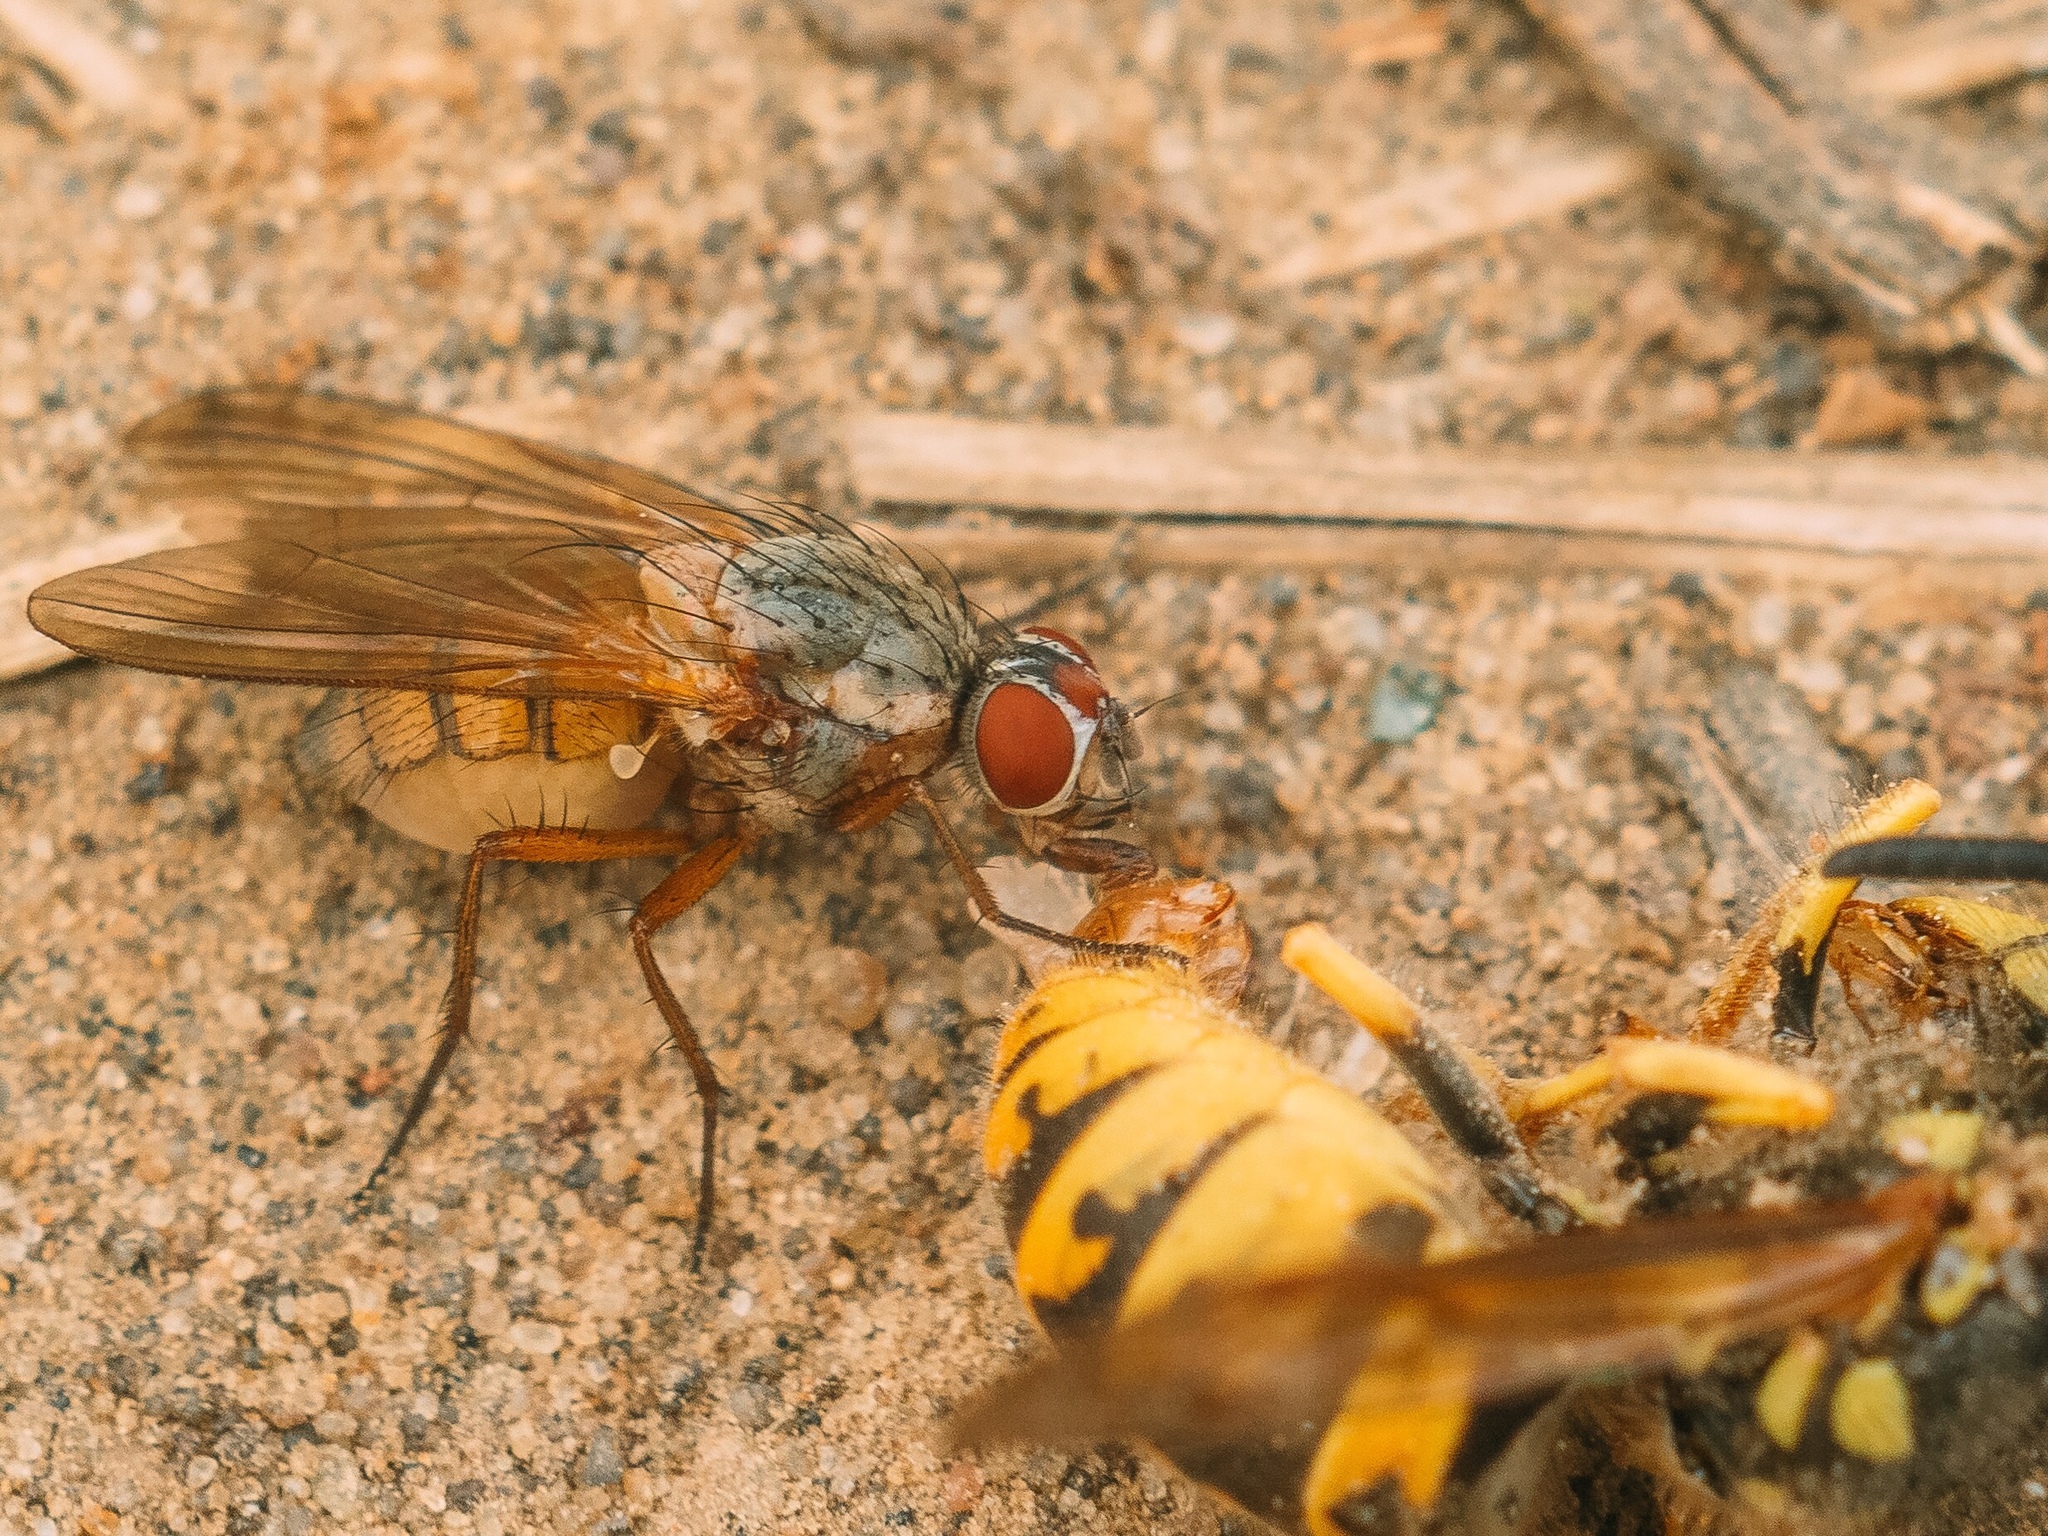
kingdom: Animalia
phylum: Arthropoda
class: Insecta
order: Diptera
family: Anthomyiidae
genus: Mycophaga
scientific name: Mycophaga testacea
